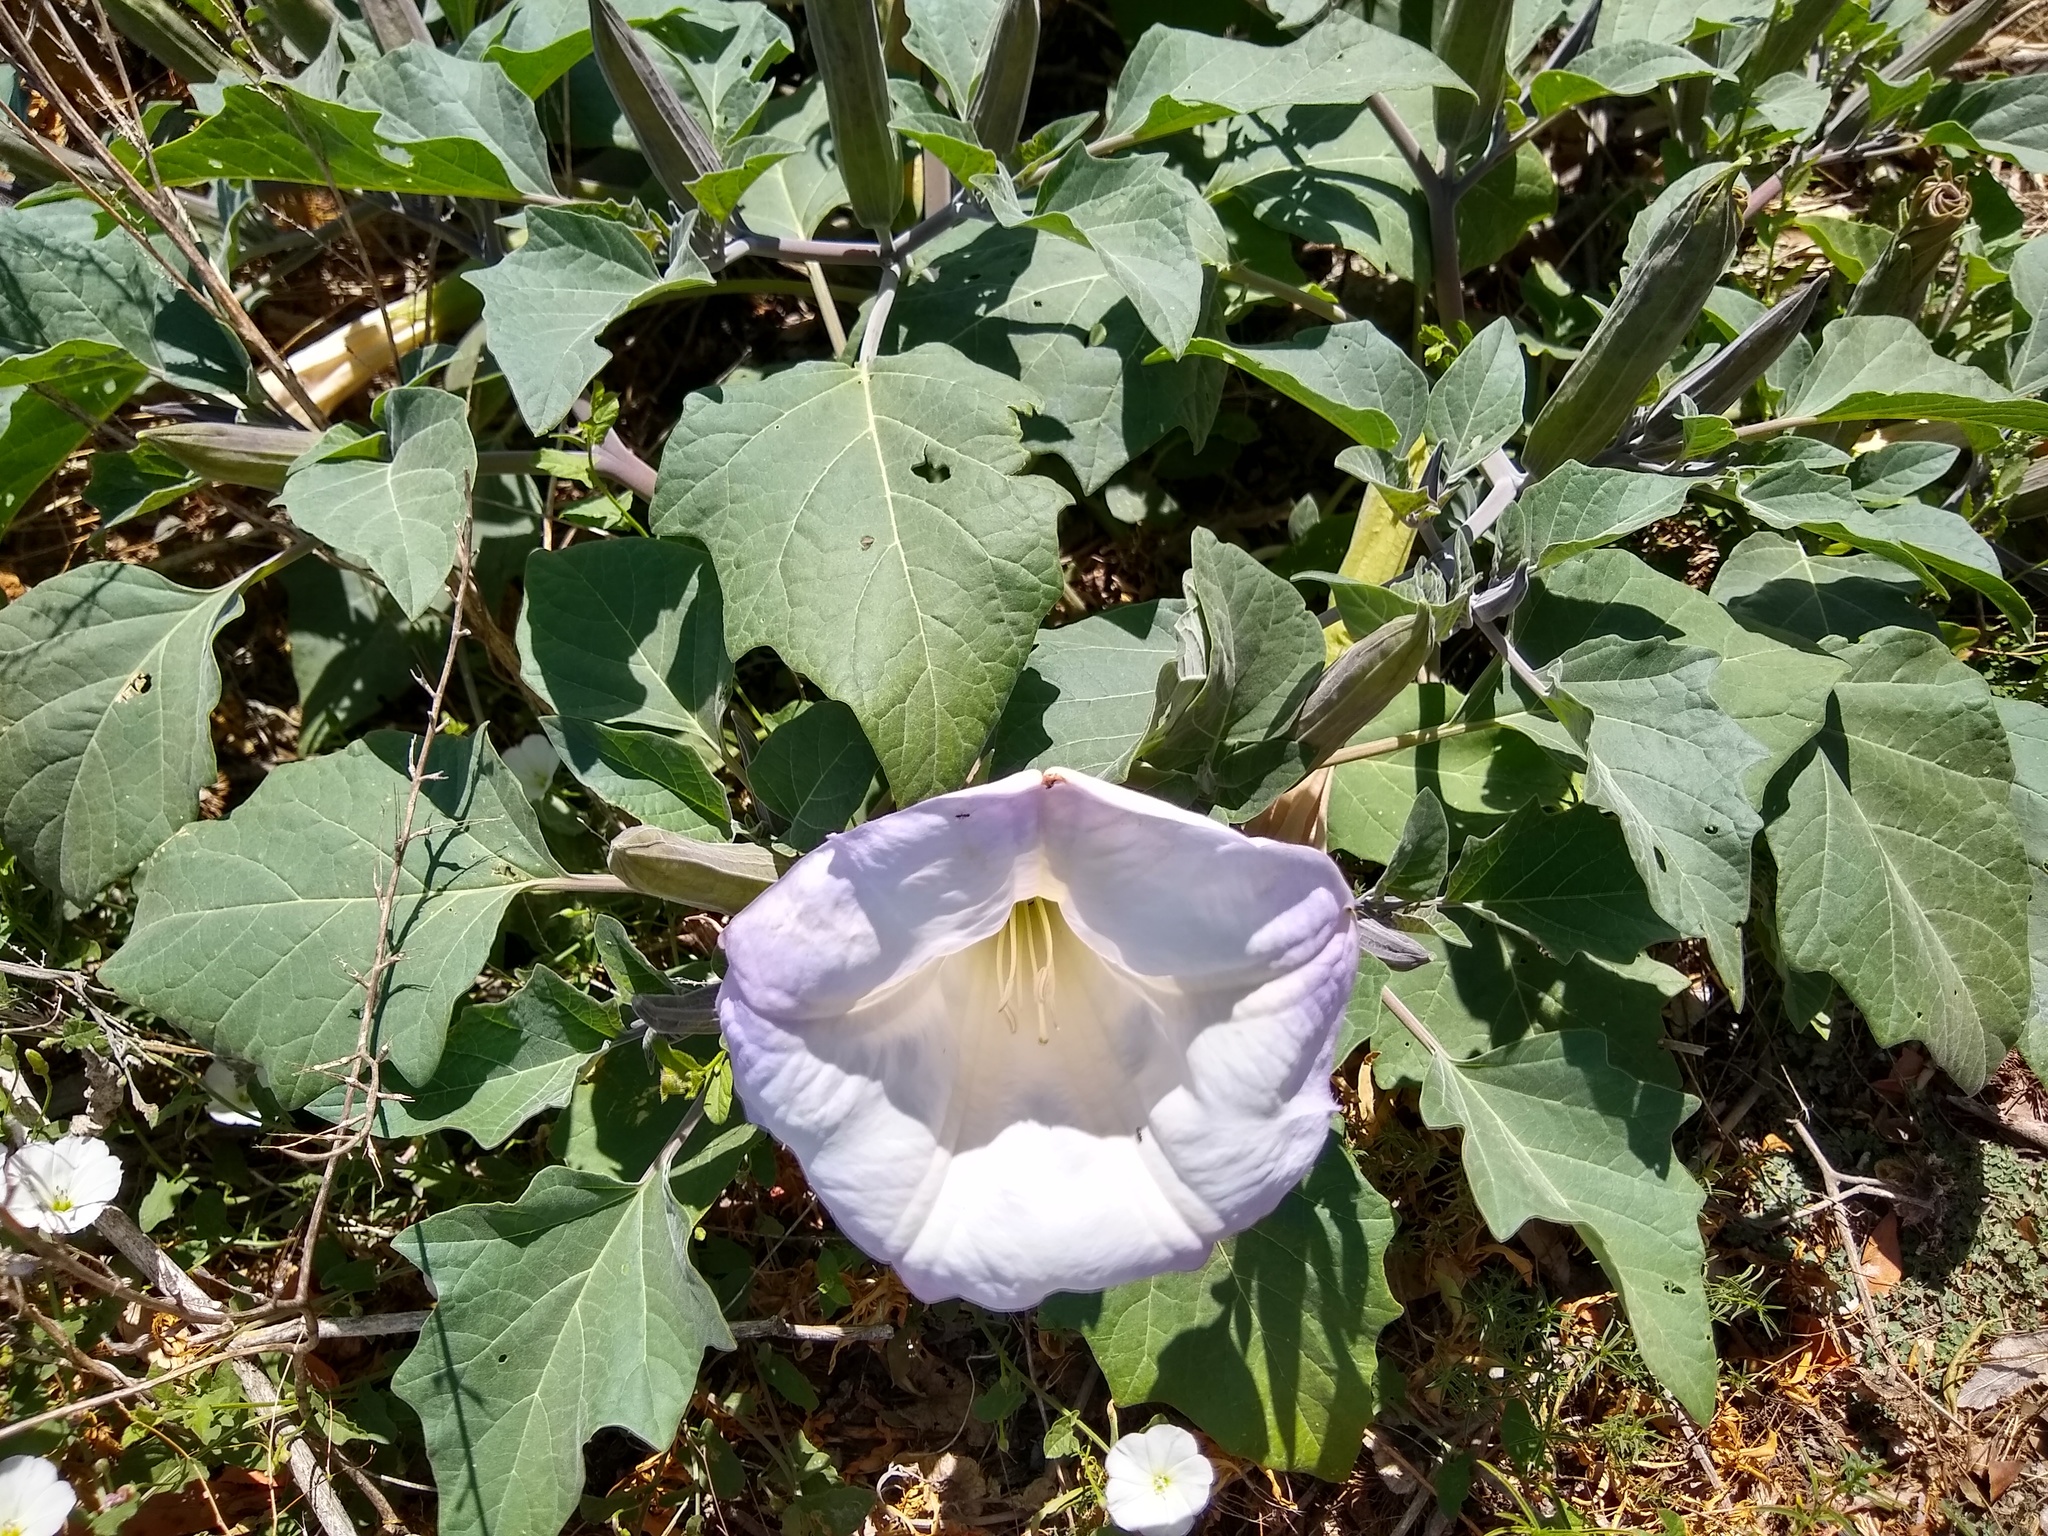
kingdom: Plantae
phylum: Tracheophyta
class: Magnoliopsida
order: Solanales
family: Solanaceae
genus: Datura
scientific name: Datura wrightii
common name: Sacred thorn-apple
